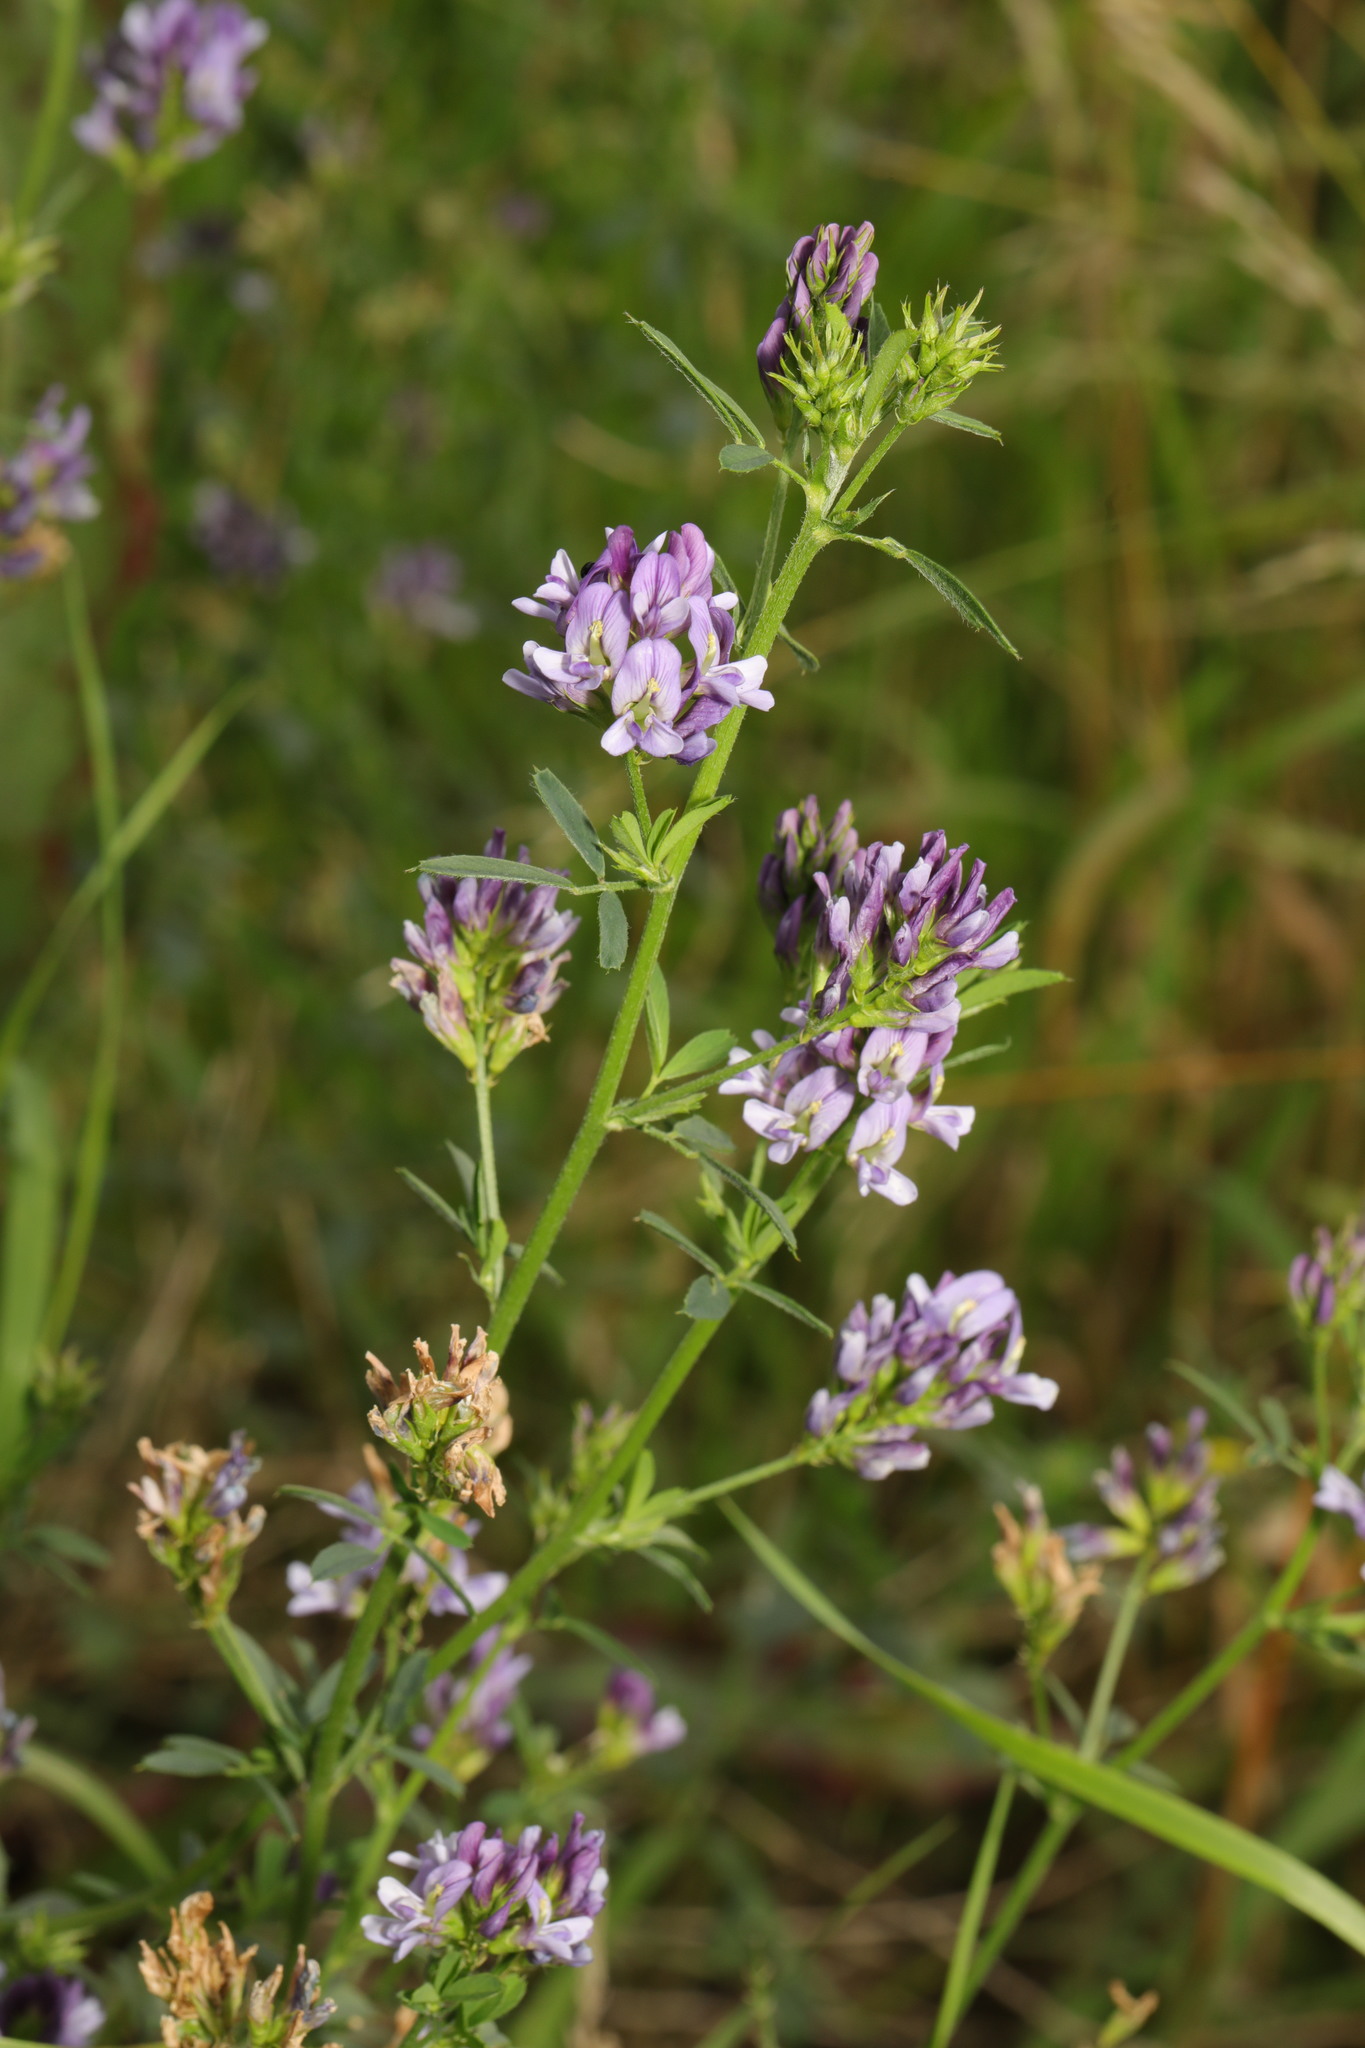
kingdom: Plantae
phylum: Tracheophyta
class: Magnoliopsida
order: Fabales
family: Fabaceae
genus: Medicago
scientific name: Medicago sativa
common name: Alfalfa
